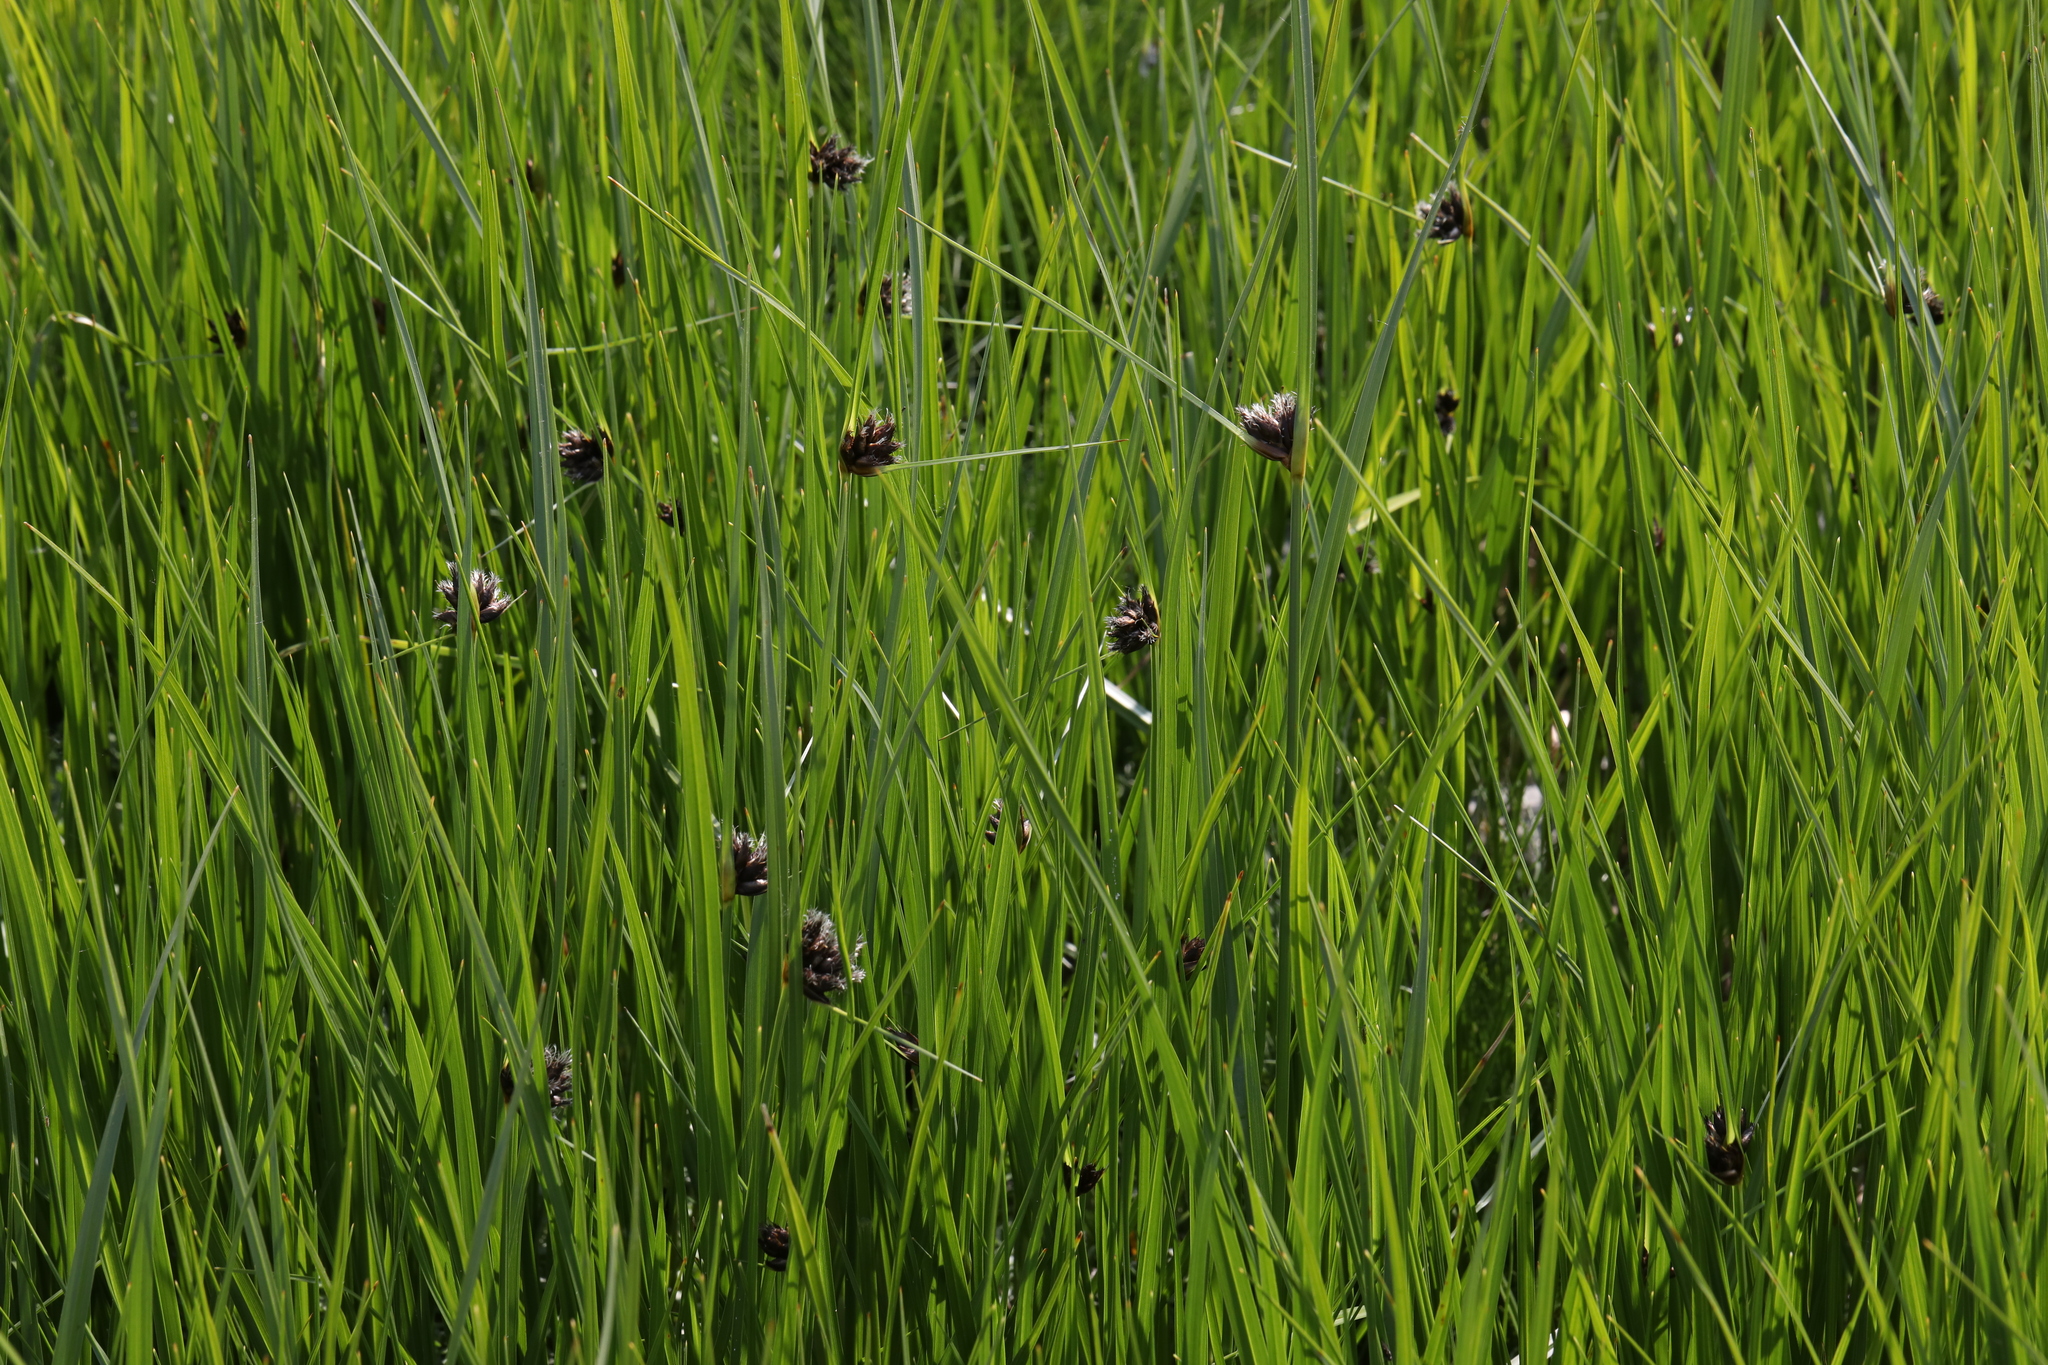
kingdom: Plantae
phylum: Tracheophyta
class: Liliopsida
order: Poales
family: Cyperaceae
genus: Bolboschoenus
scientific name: Bolboschoenus maritimus
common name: Sea club-rush
